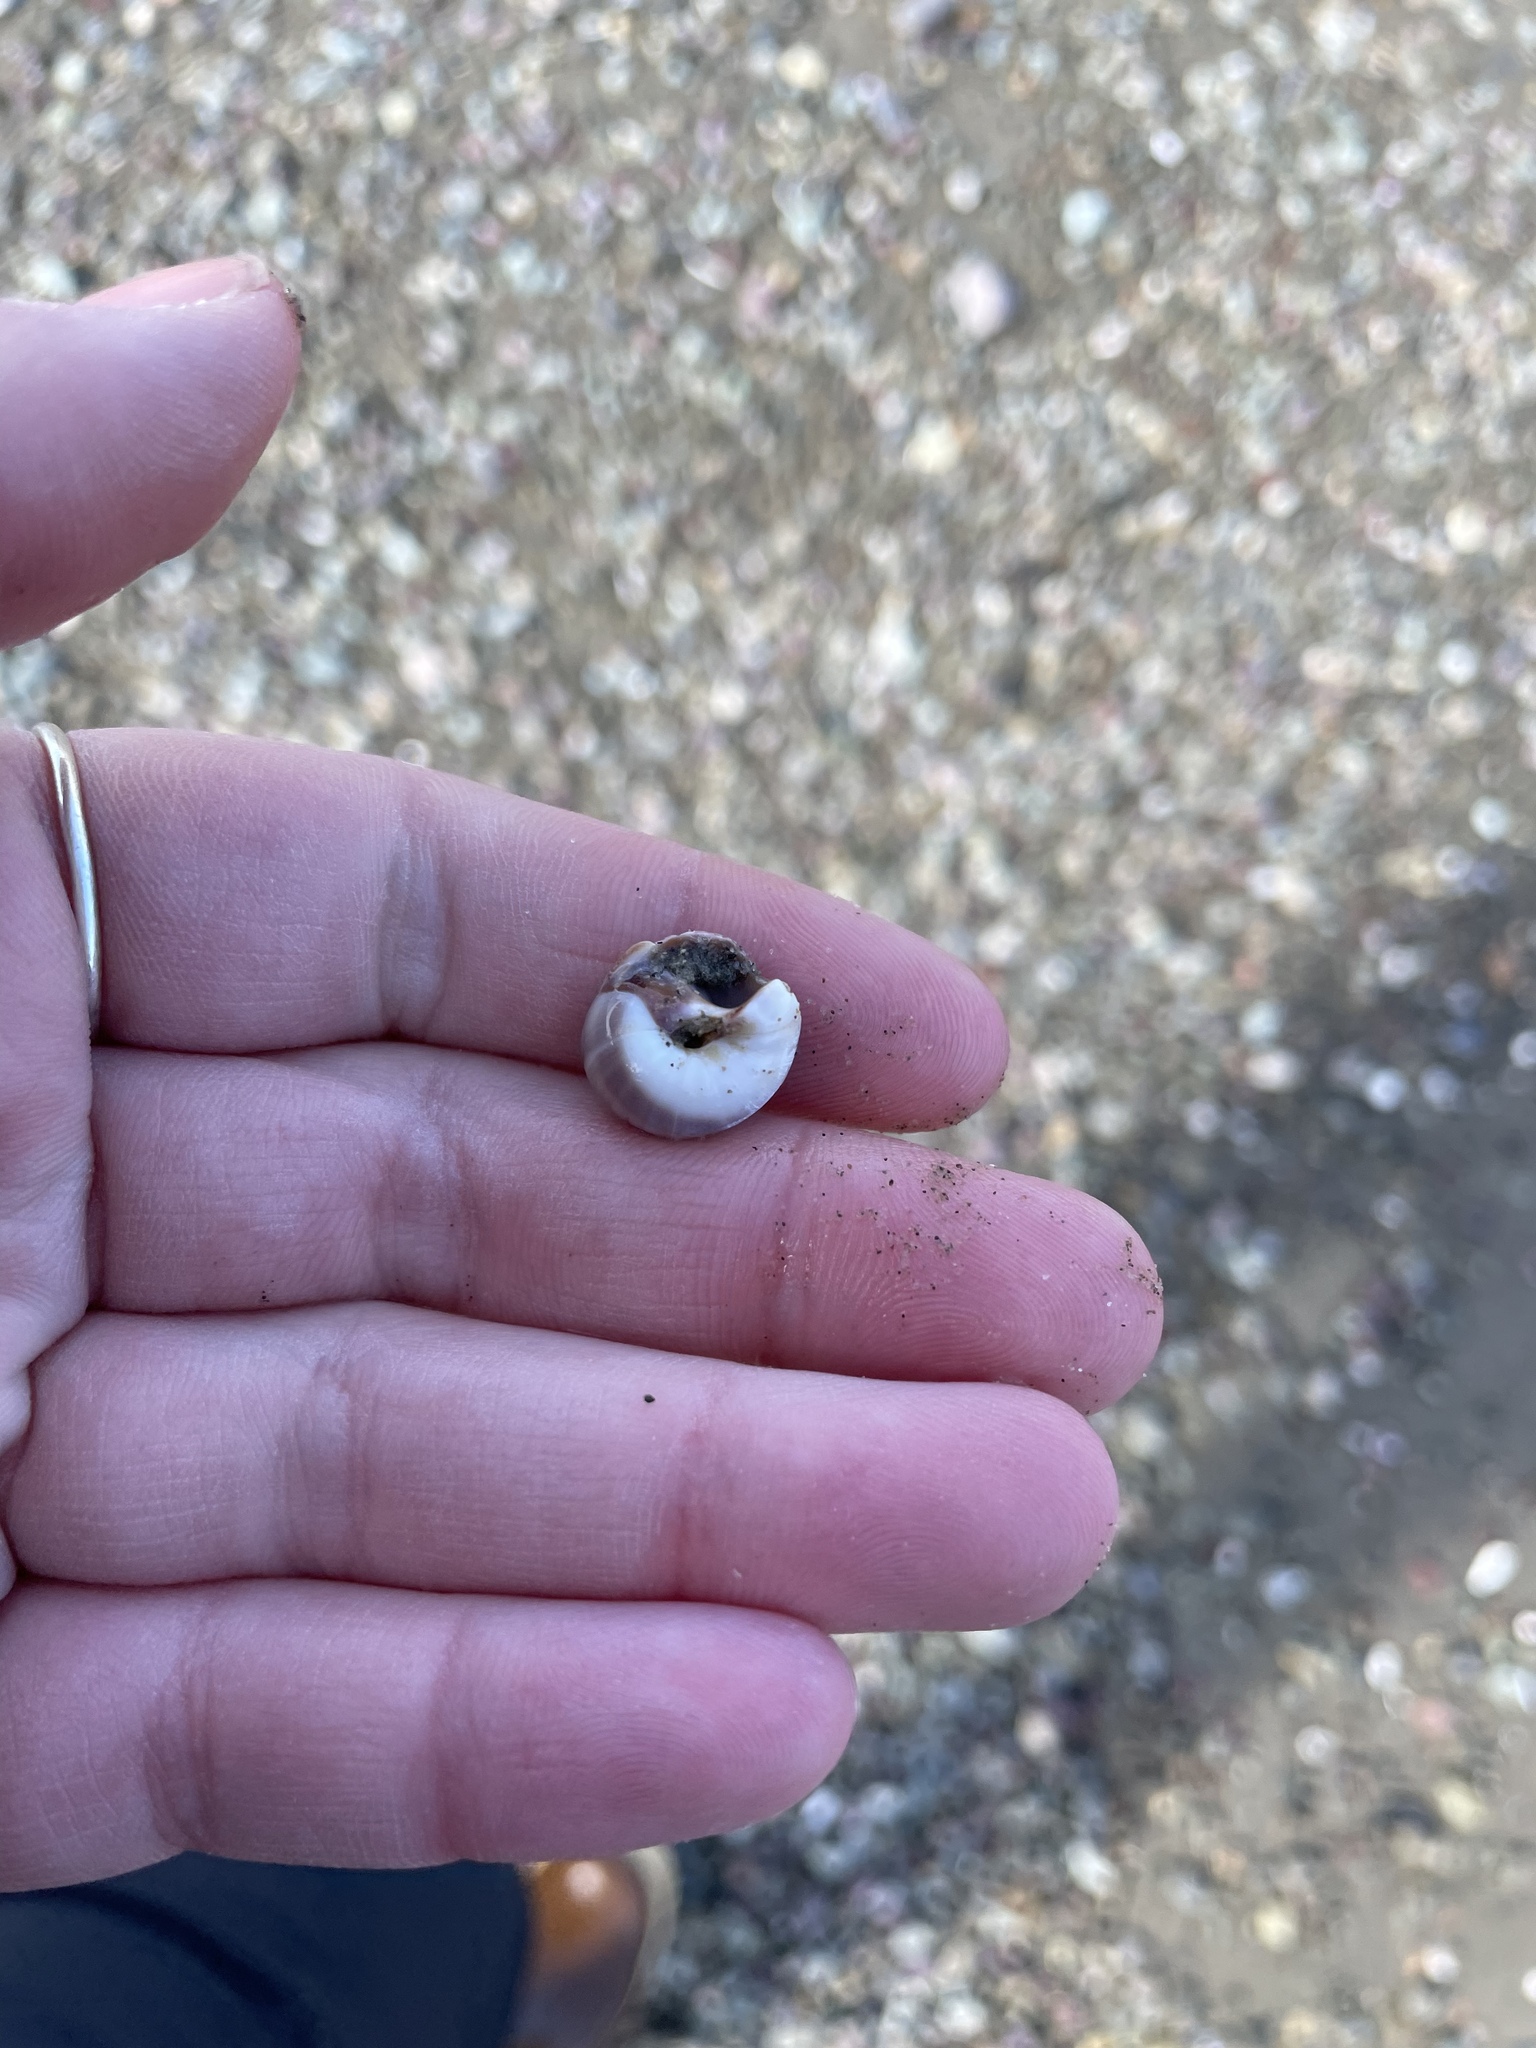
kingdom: Animalia
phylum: Mollusca
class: Gastropoda
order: Littorinimorpha
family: Naticidae
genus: Euspira
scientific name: Euspira heros
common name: Common northern moonsnail
